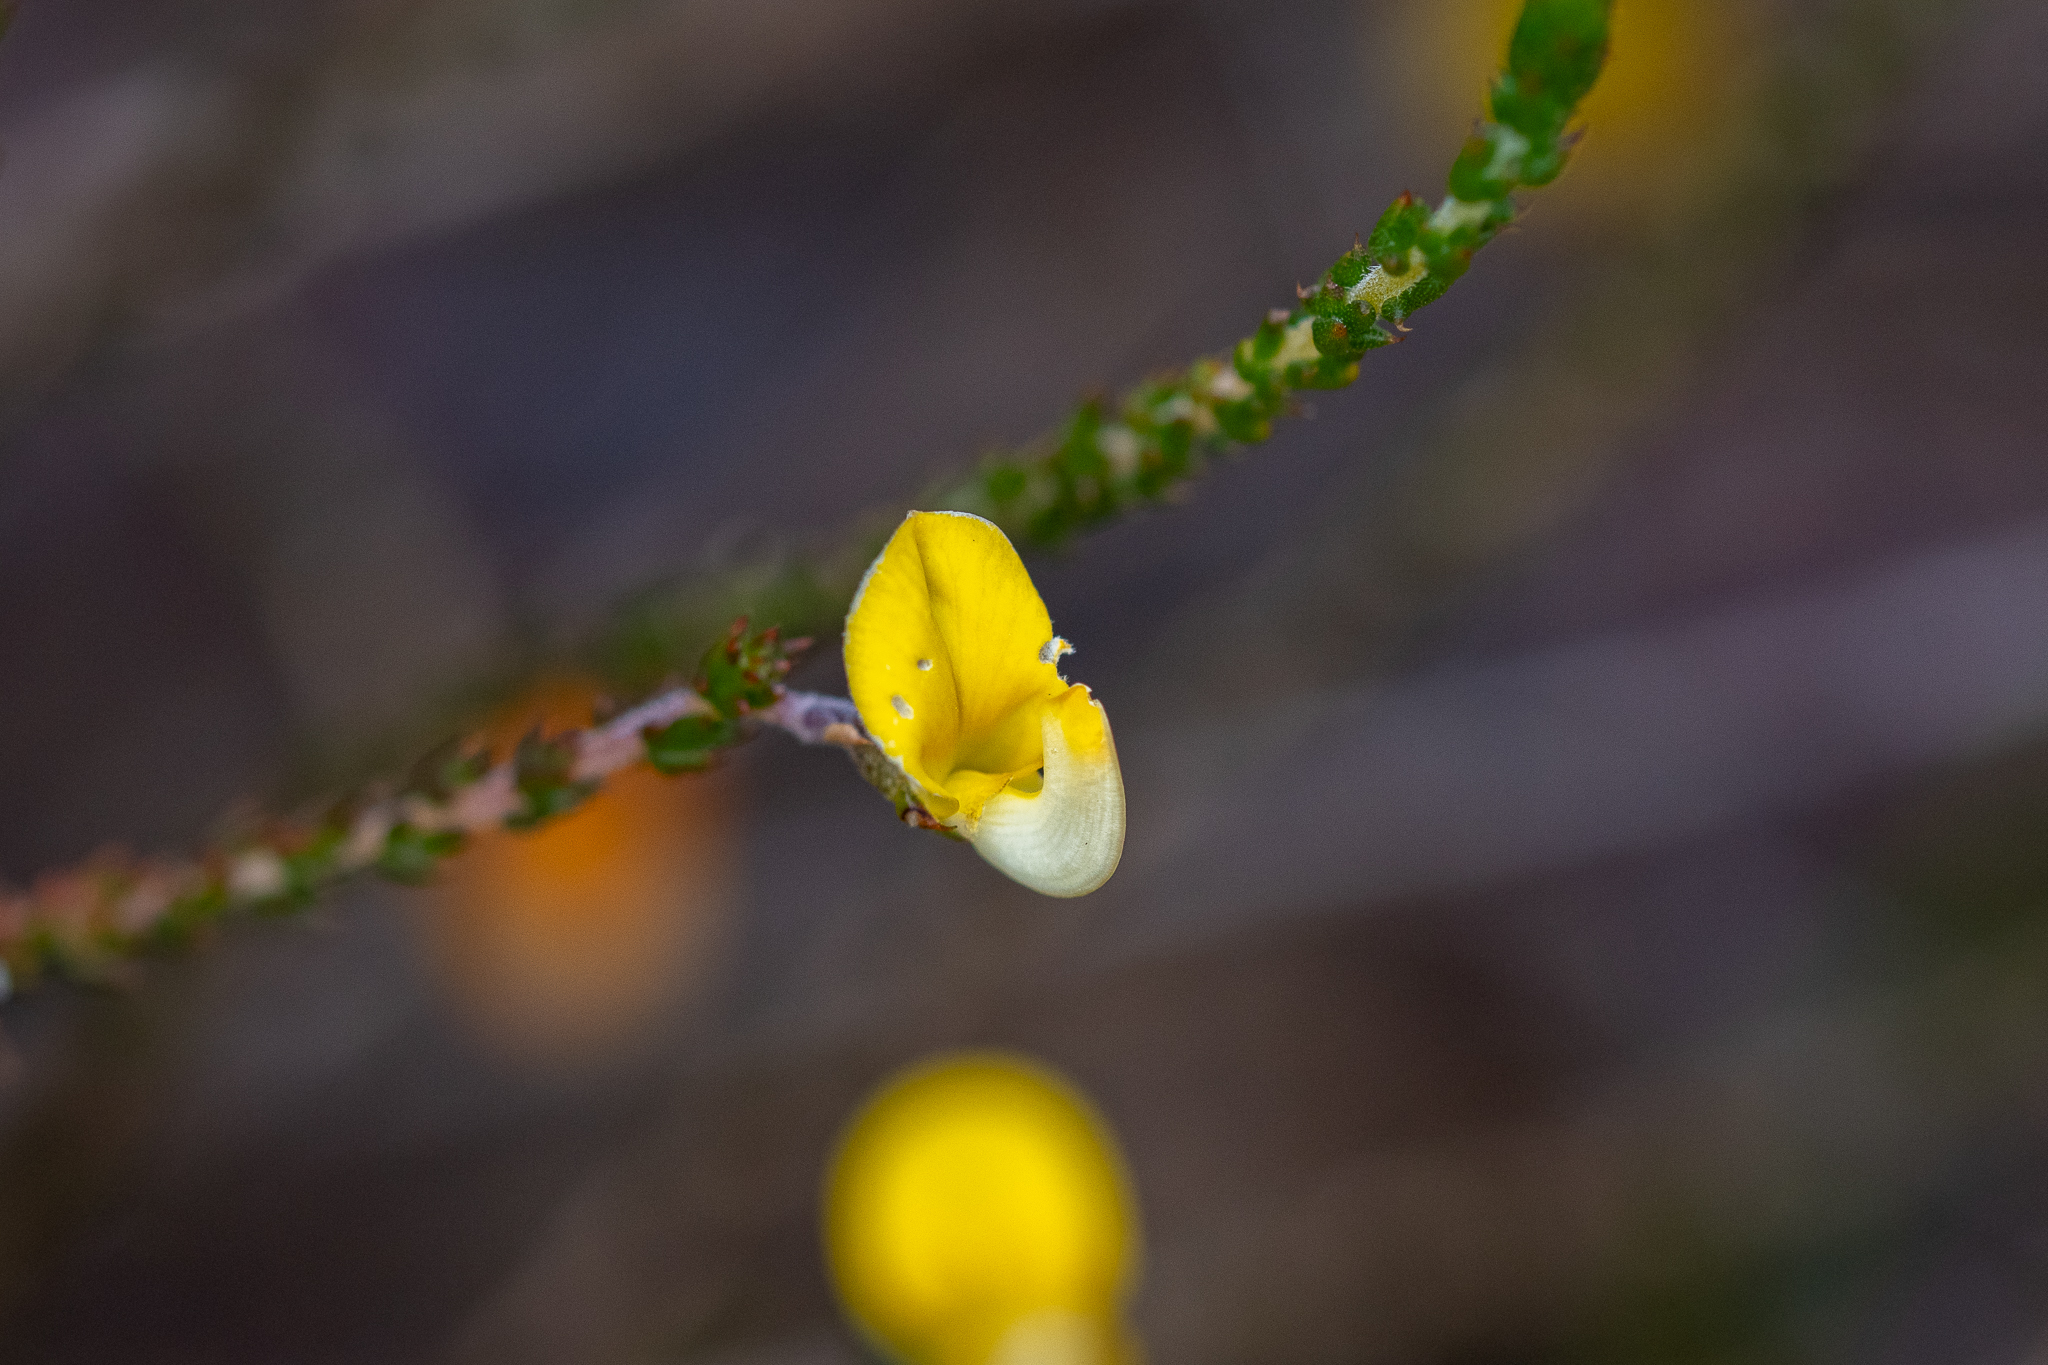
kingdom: Plantae
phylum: Tracheophyta
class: Magnoliopsida
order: Fabales
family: Fabaceae
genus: Aspalathus
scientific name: Aspalathus divaricata
